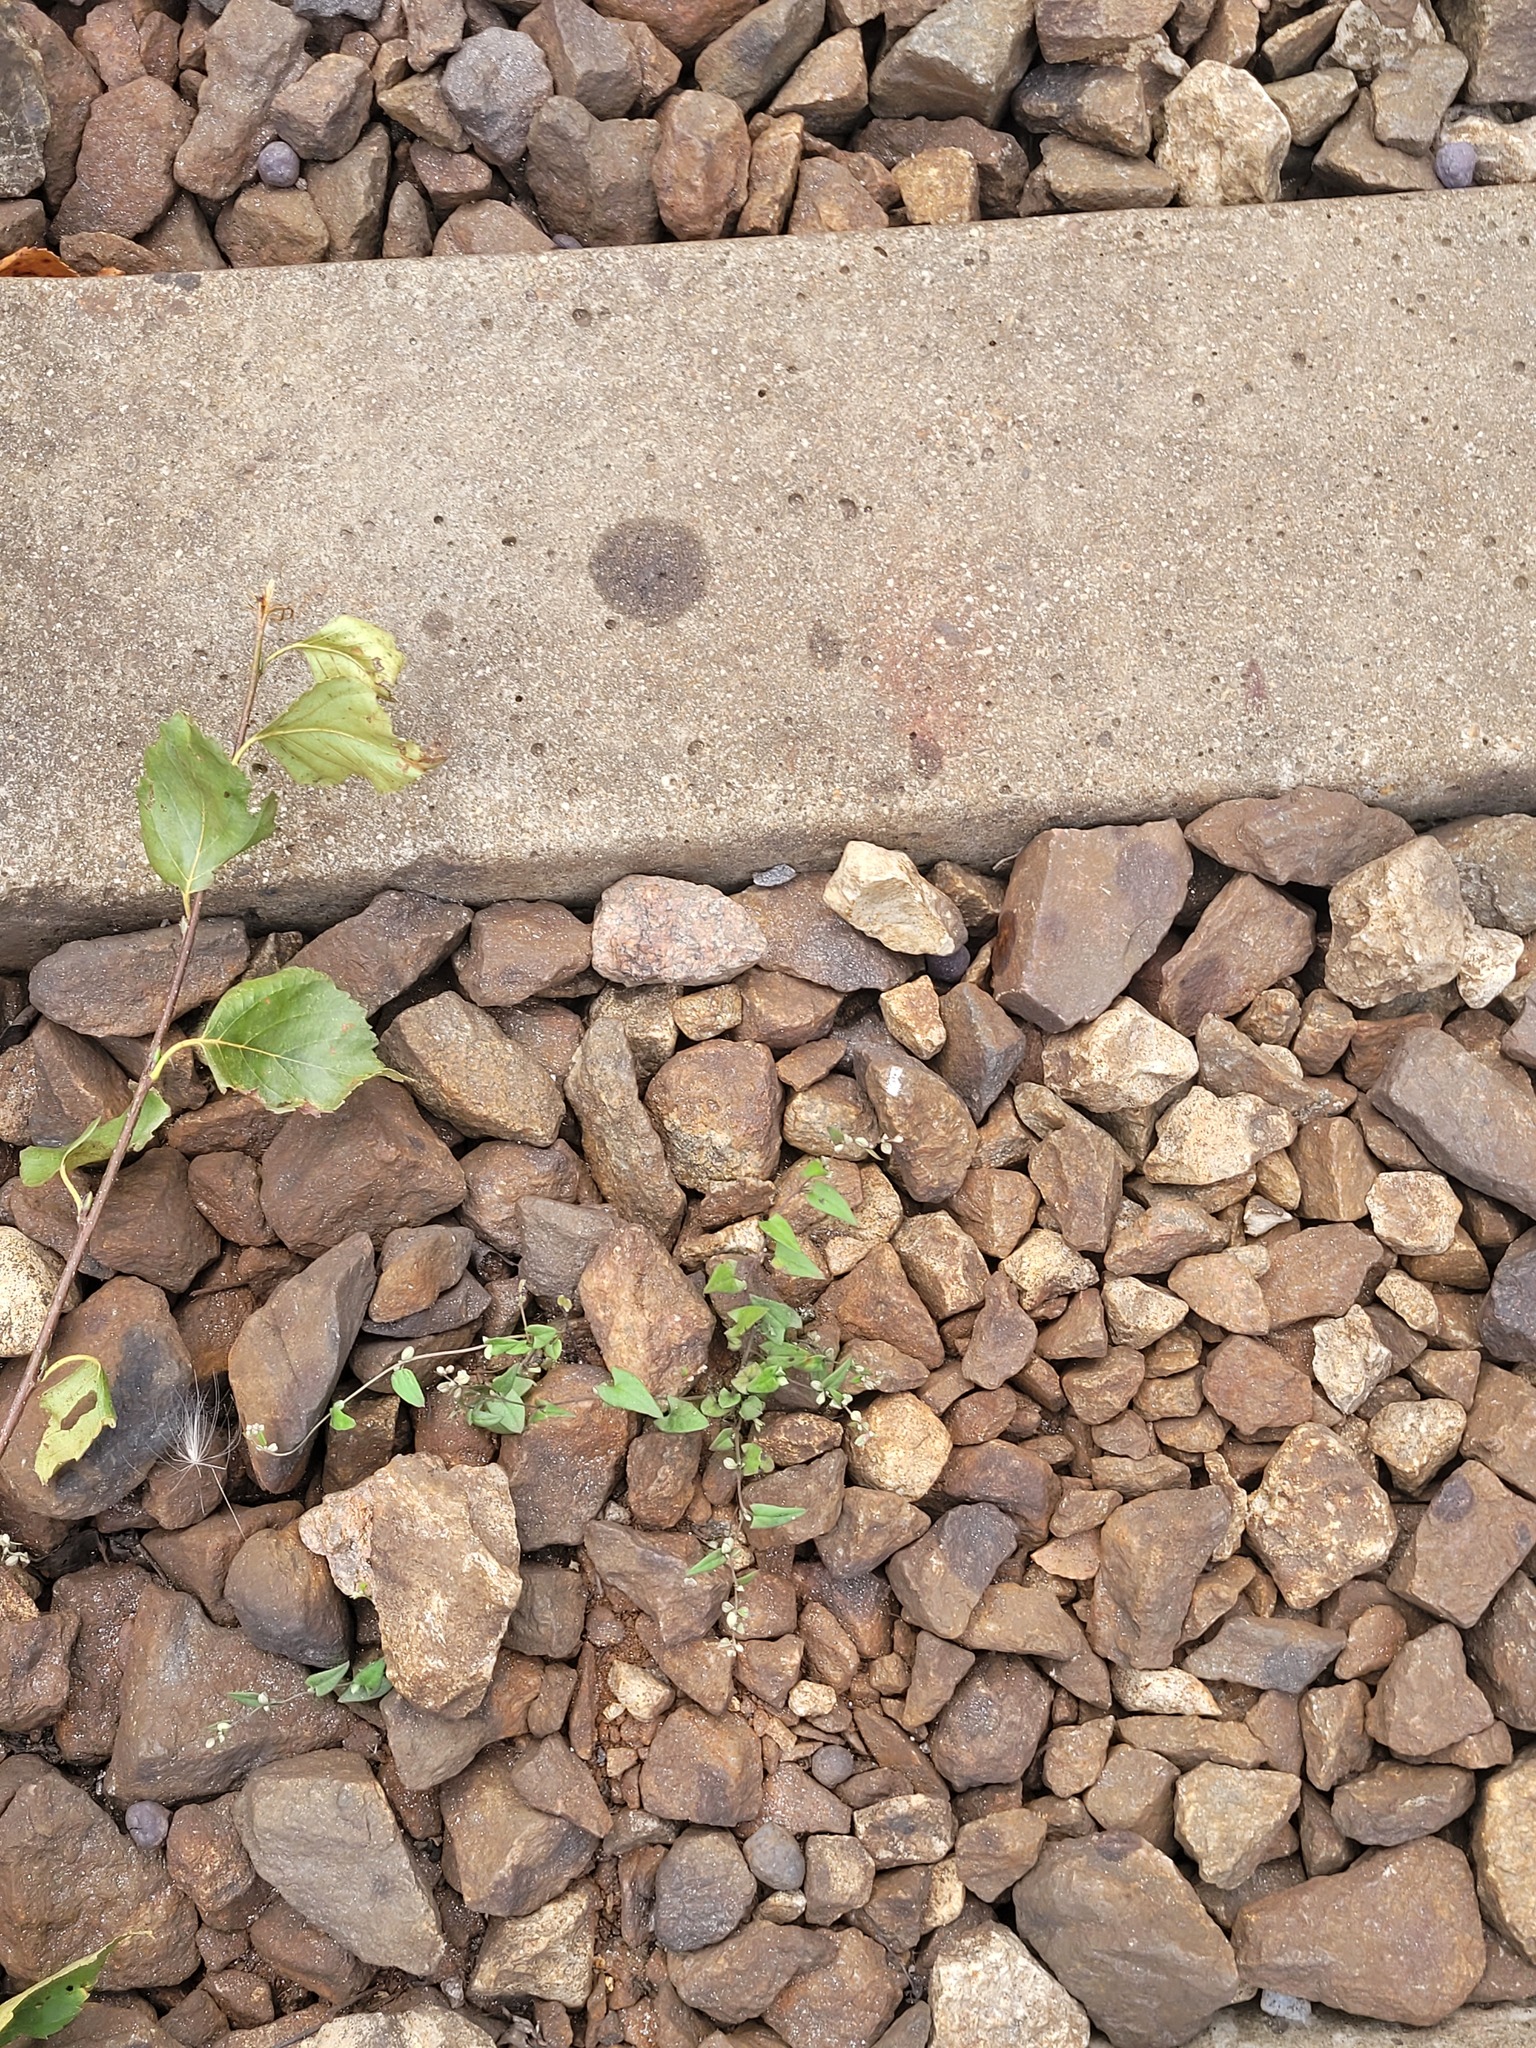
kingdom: Plantae
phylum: Tracheophyta
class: Magnoliopsida
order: Caryophyllales
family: Polygonaceae
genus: Fallopia
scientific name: Fallopia convolvulus
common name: Black bindweed
